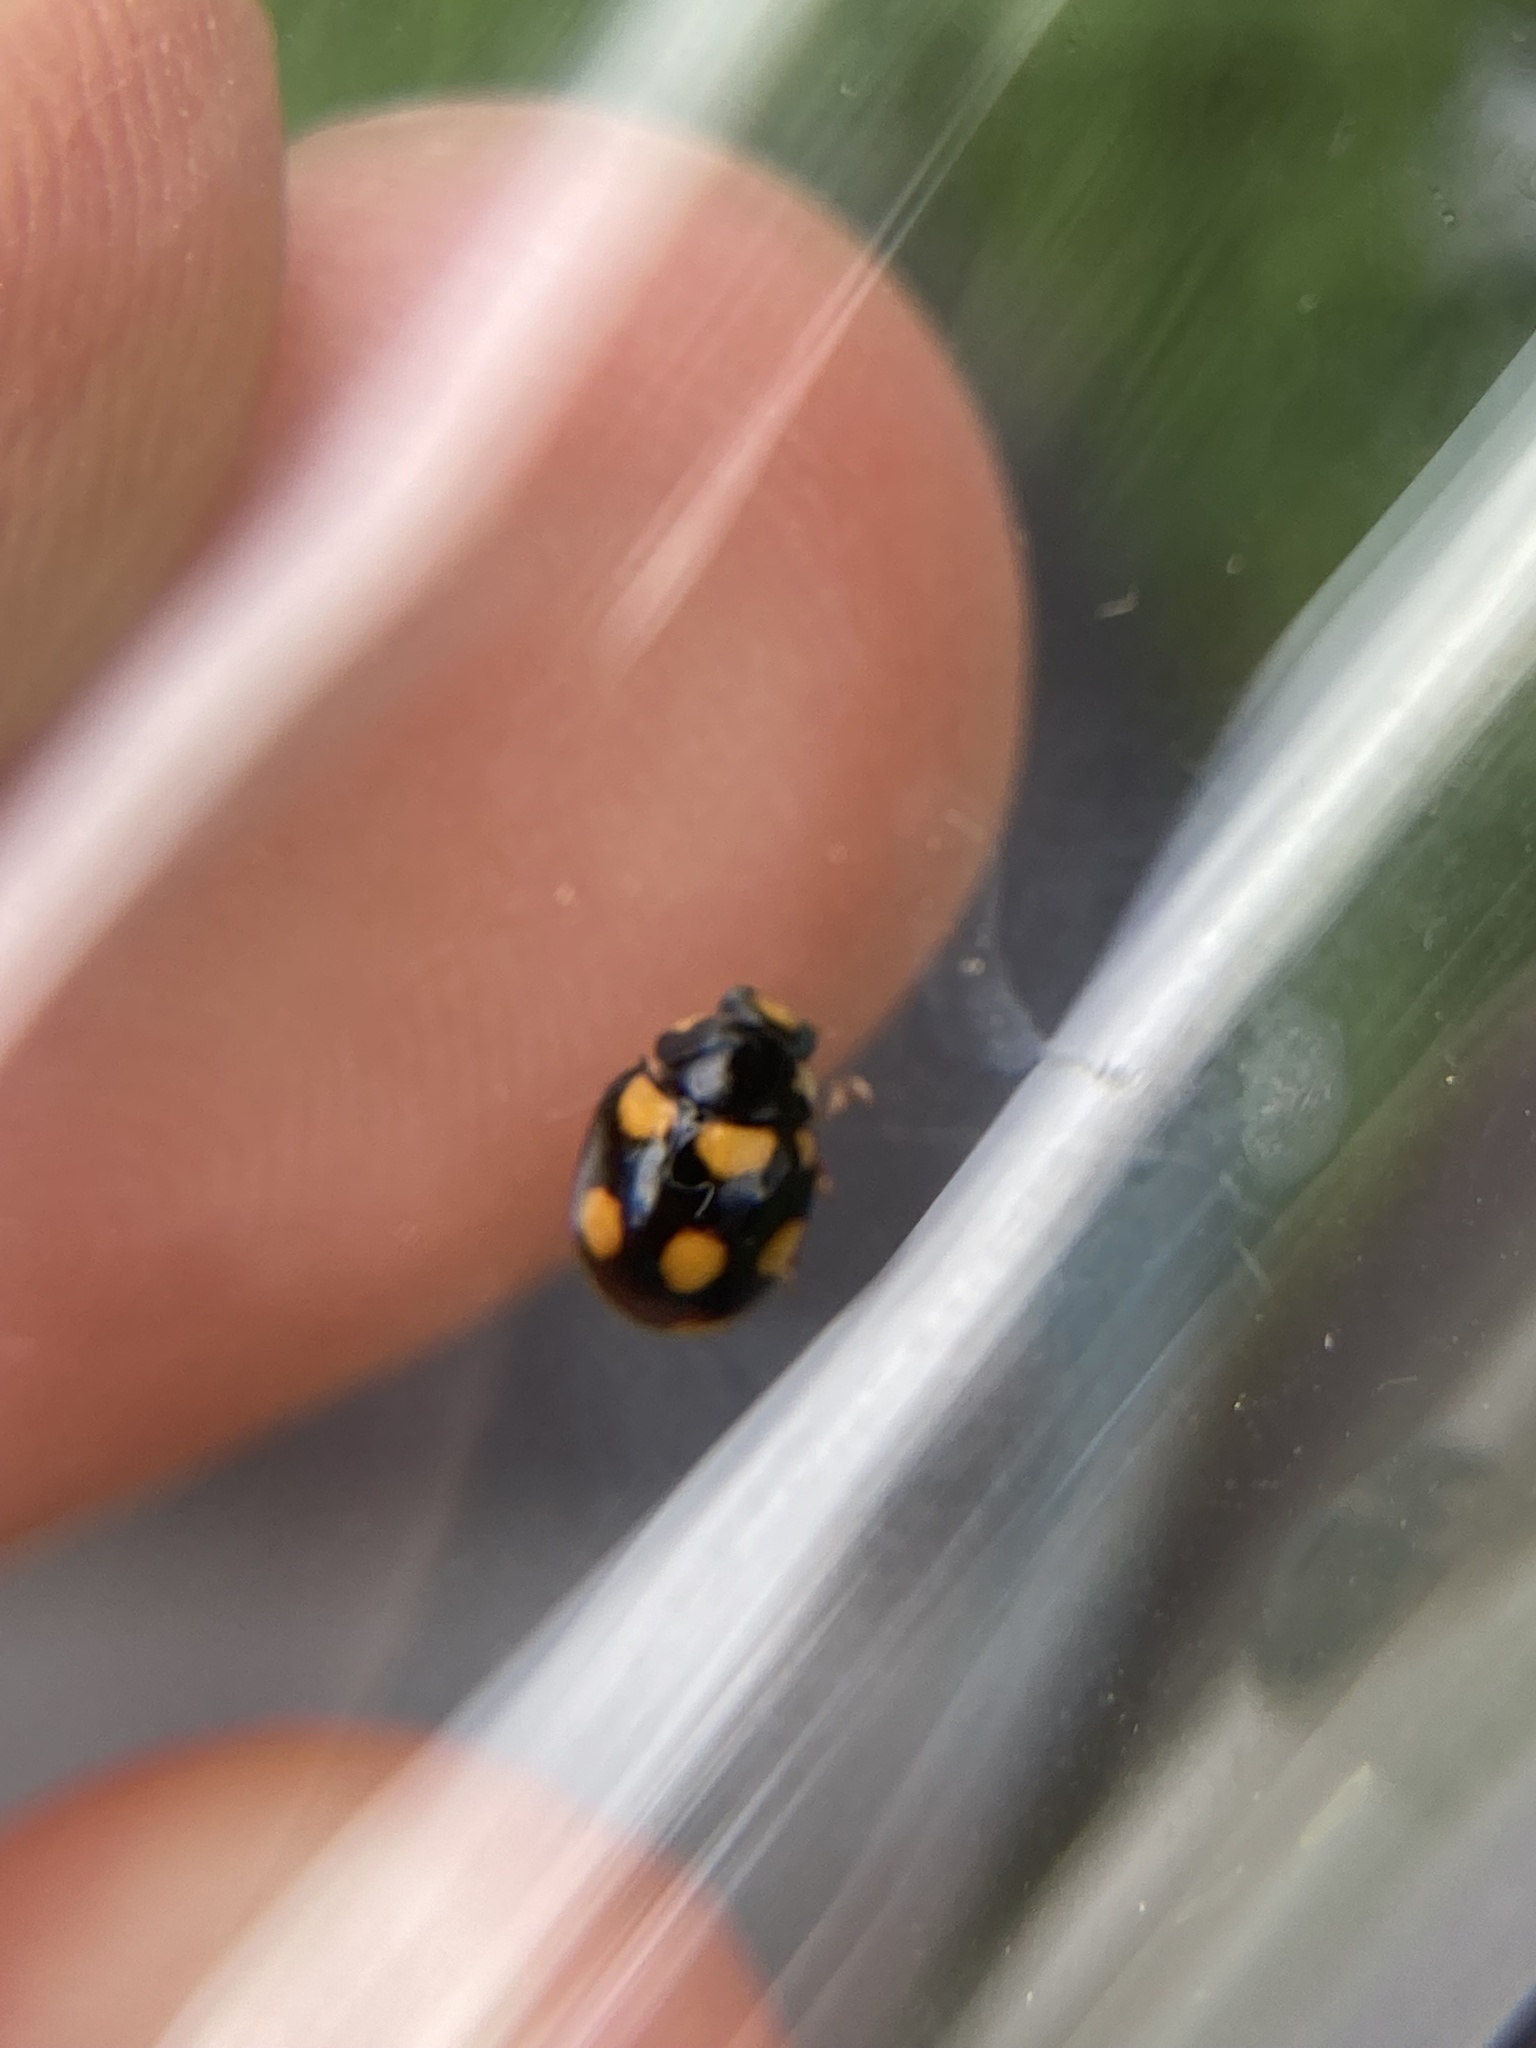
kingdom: Animalia
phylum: Arthropoda
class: Insecta
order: Coleoptera
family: Coccinellidae
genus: Brachiacantha
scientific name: Brachiacantha ursina
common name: Ursine spurleg lady beetle
